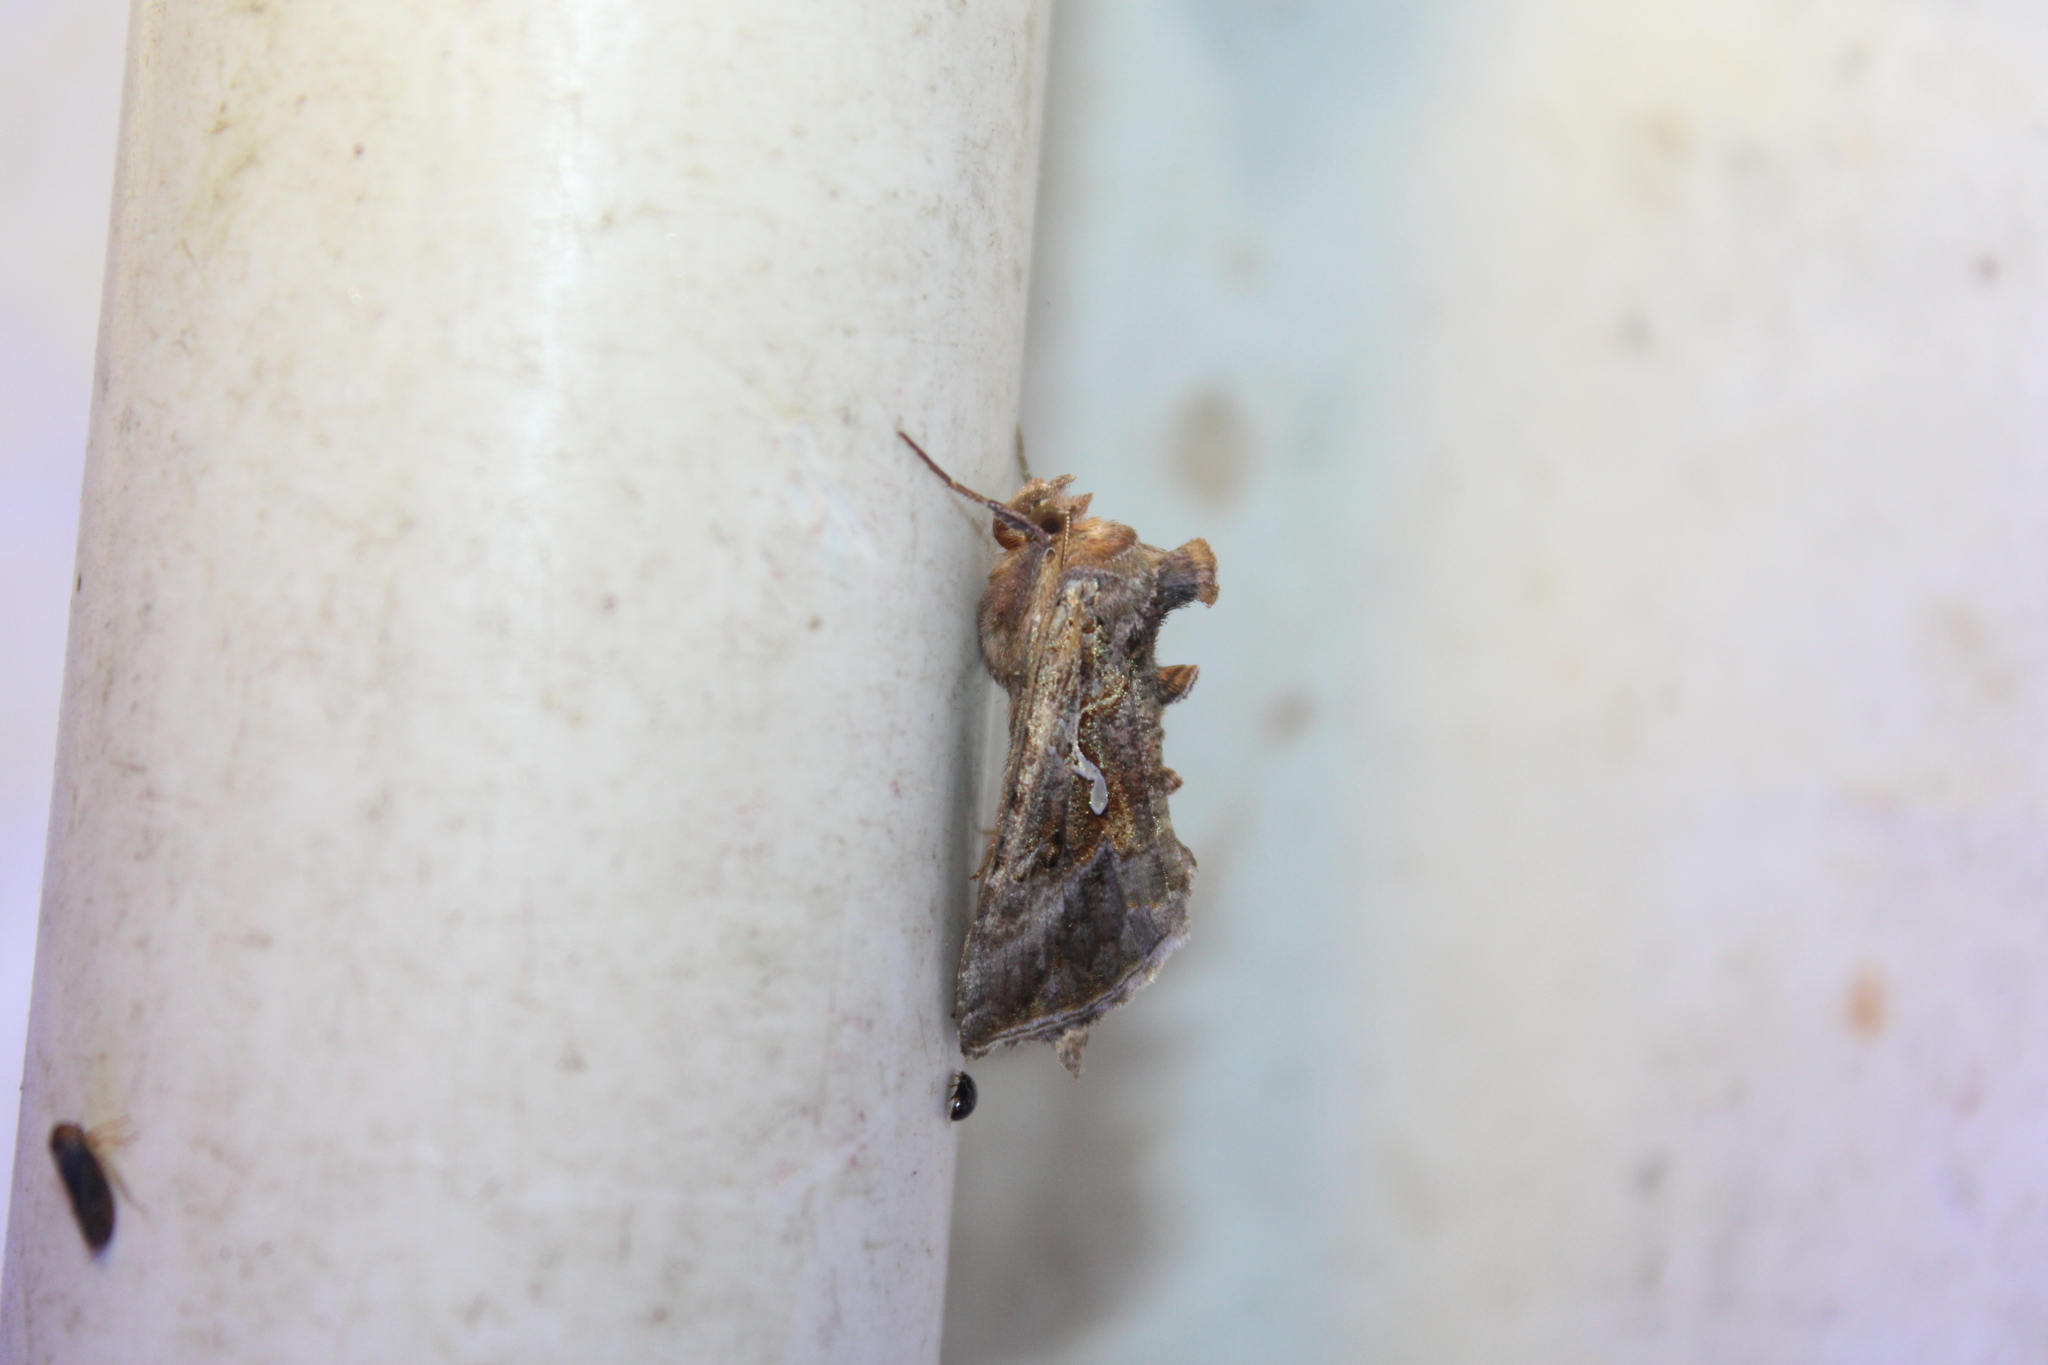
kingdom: Animalia
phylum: Arthropoda
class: Insecta
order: Lepidoptera
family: Noctuidae
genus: Autographa
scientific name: Autographa precationis
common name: Common looper moth
